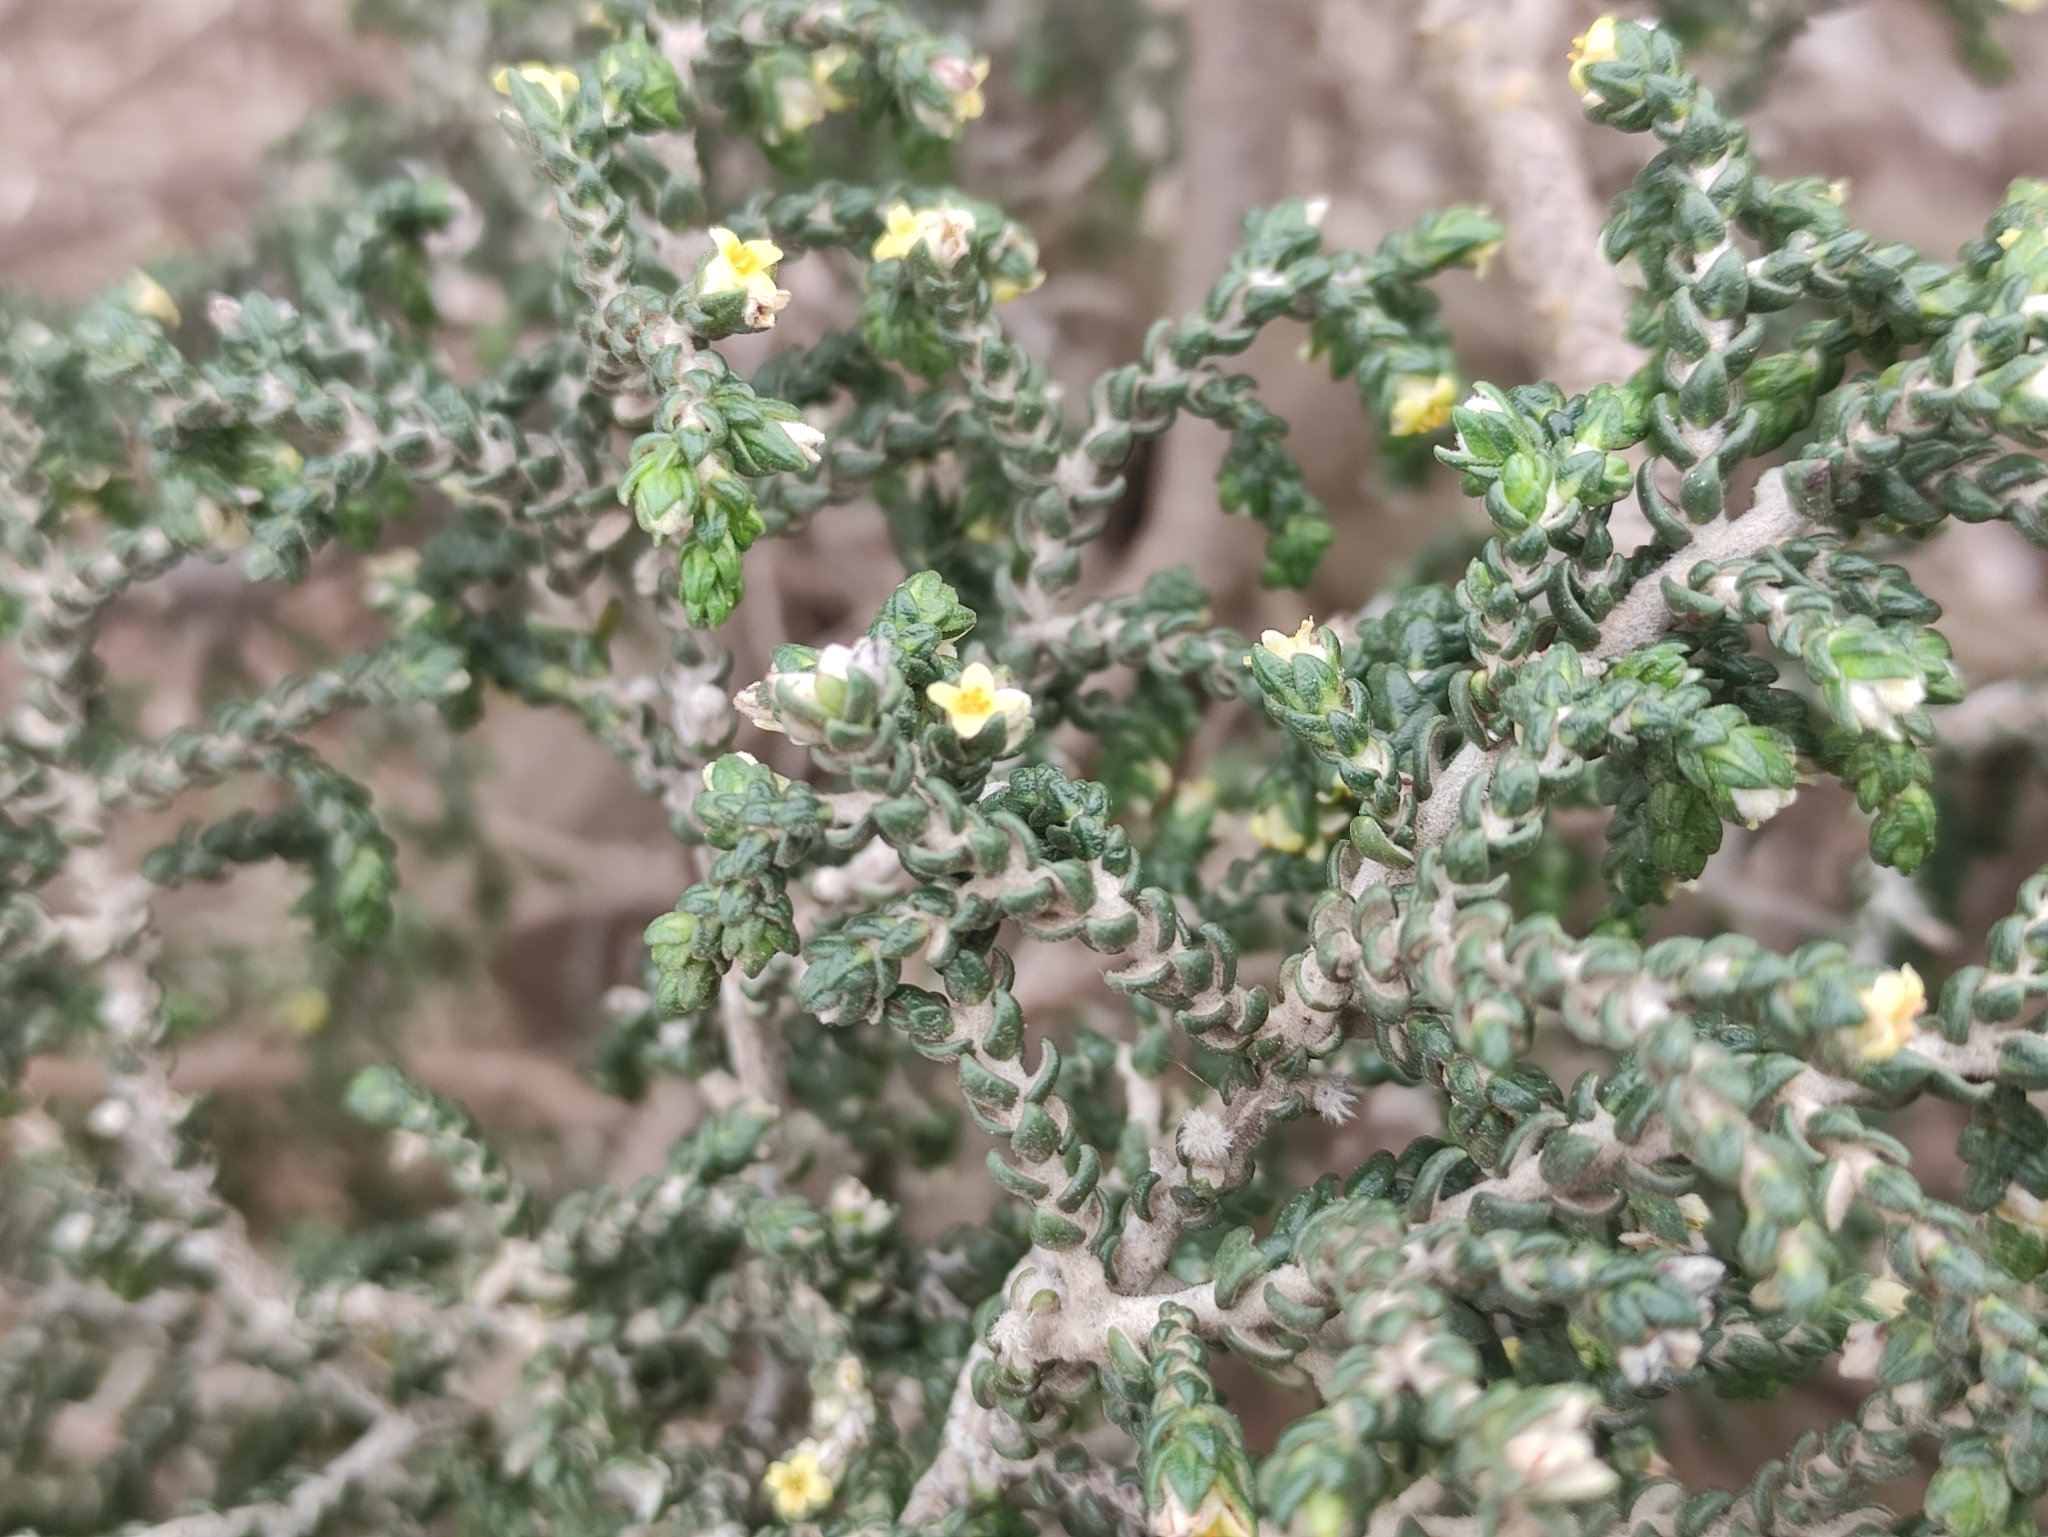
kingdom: Plantae
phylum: Tracheophyta
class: Magnoliopsida
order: Malvales
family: Thymelaeaceae
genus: Thymelaea
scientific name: Thymelaea hirsuta
